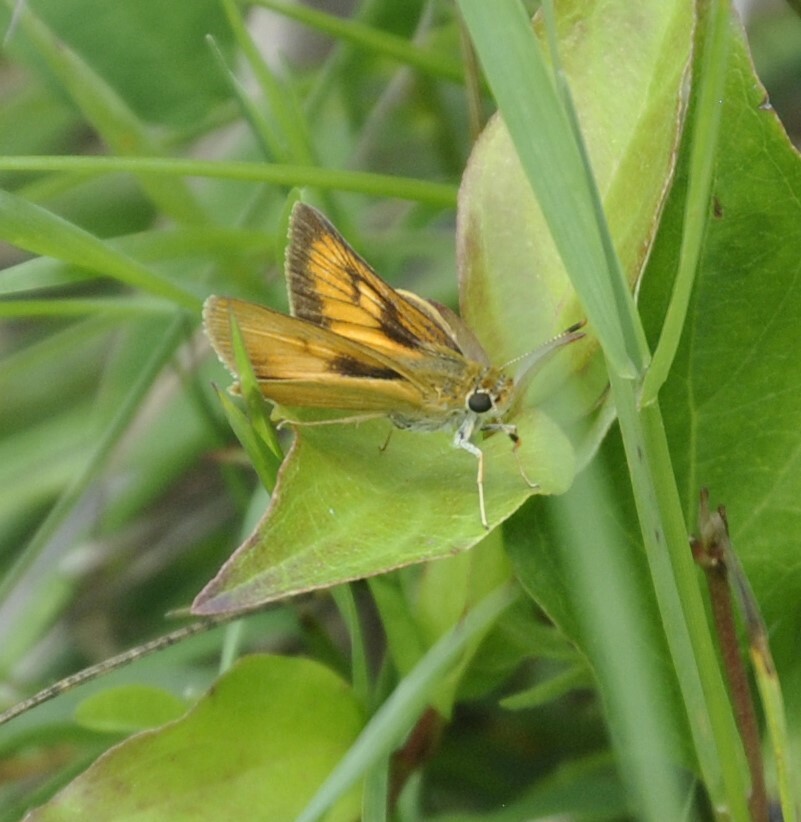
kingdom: Animalia
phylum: Arthropoda
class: Insecta
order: Lepidoptera
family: Hesperiidae
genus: Atrytone
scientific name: Atrytone delaware
